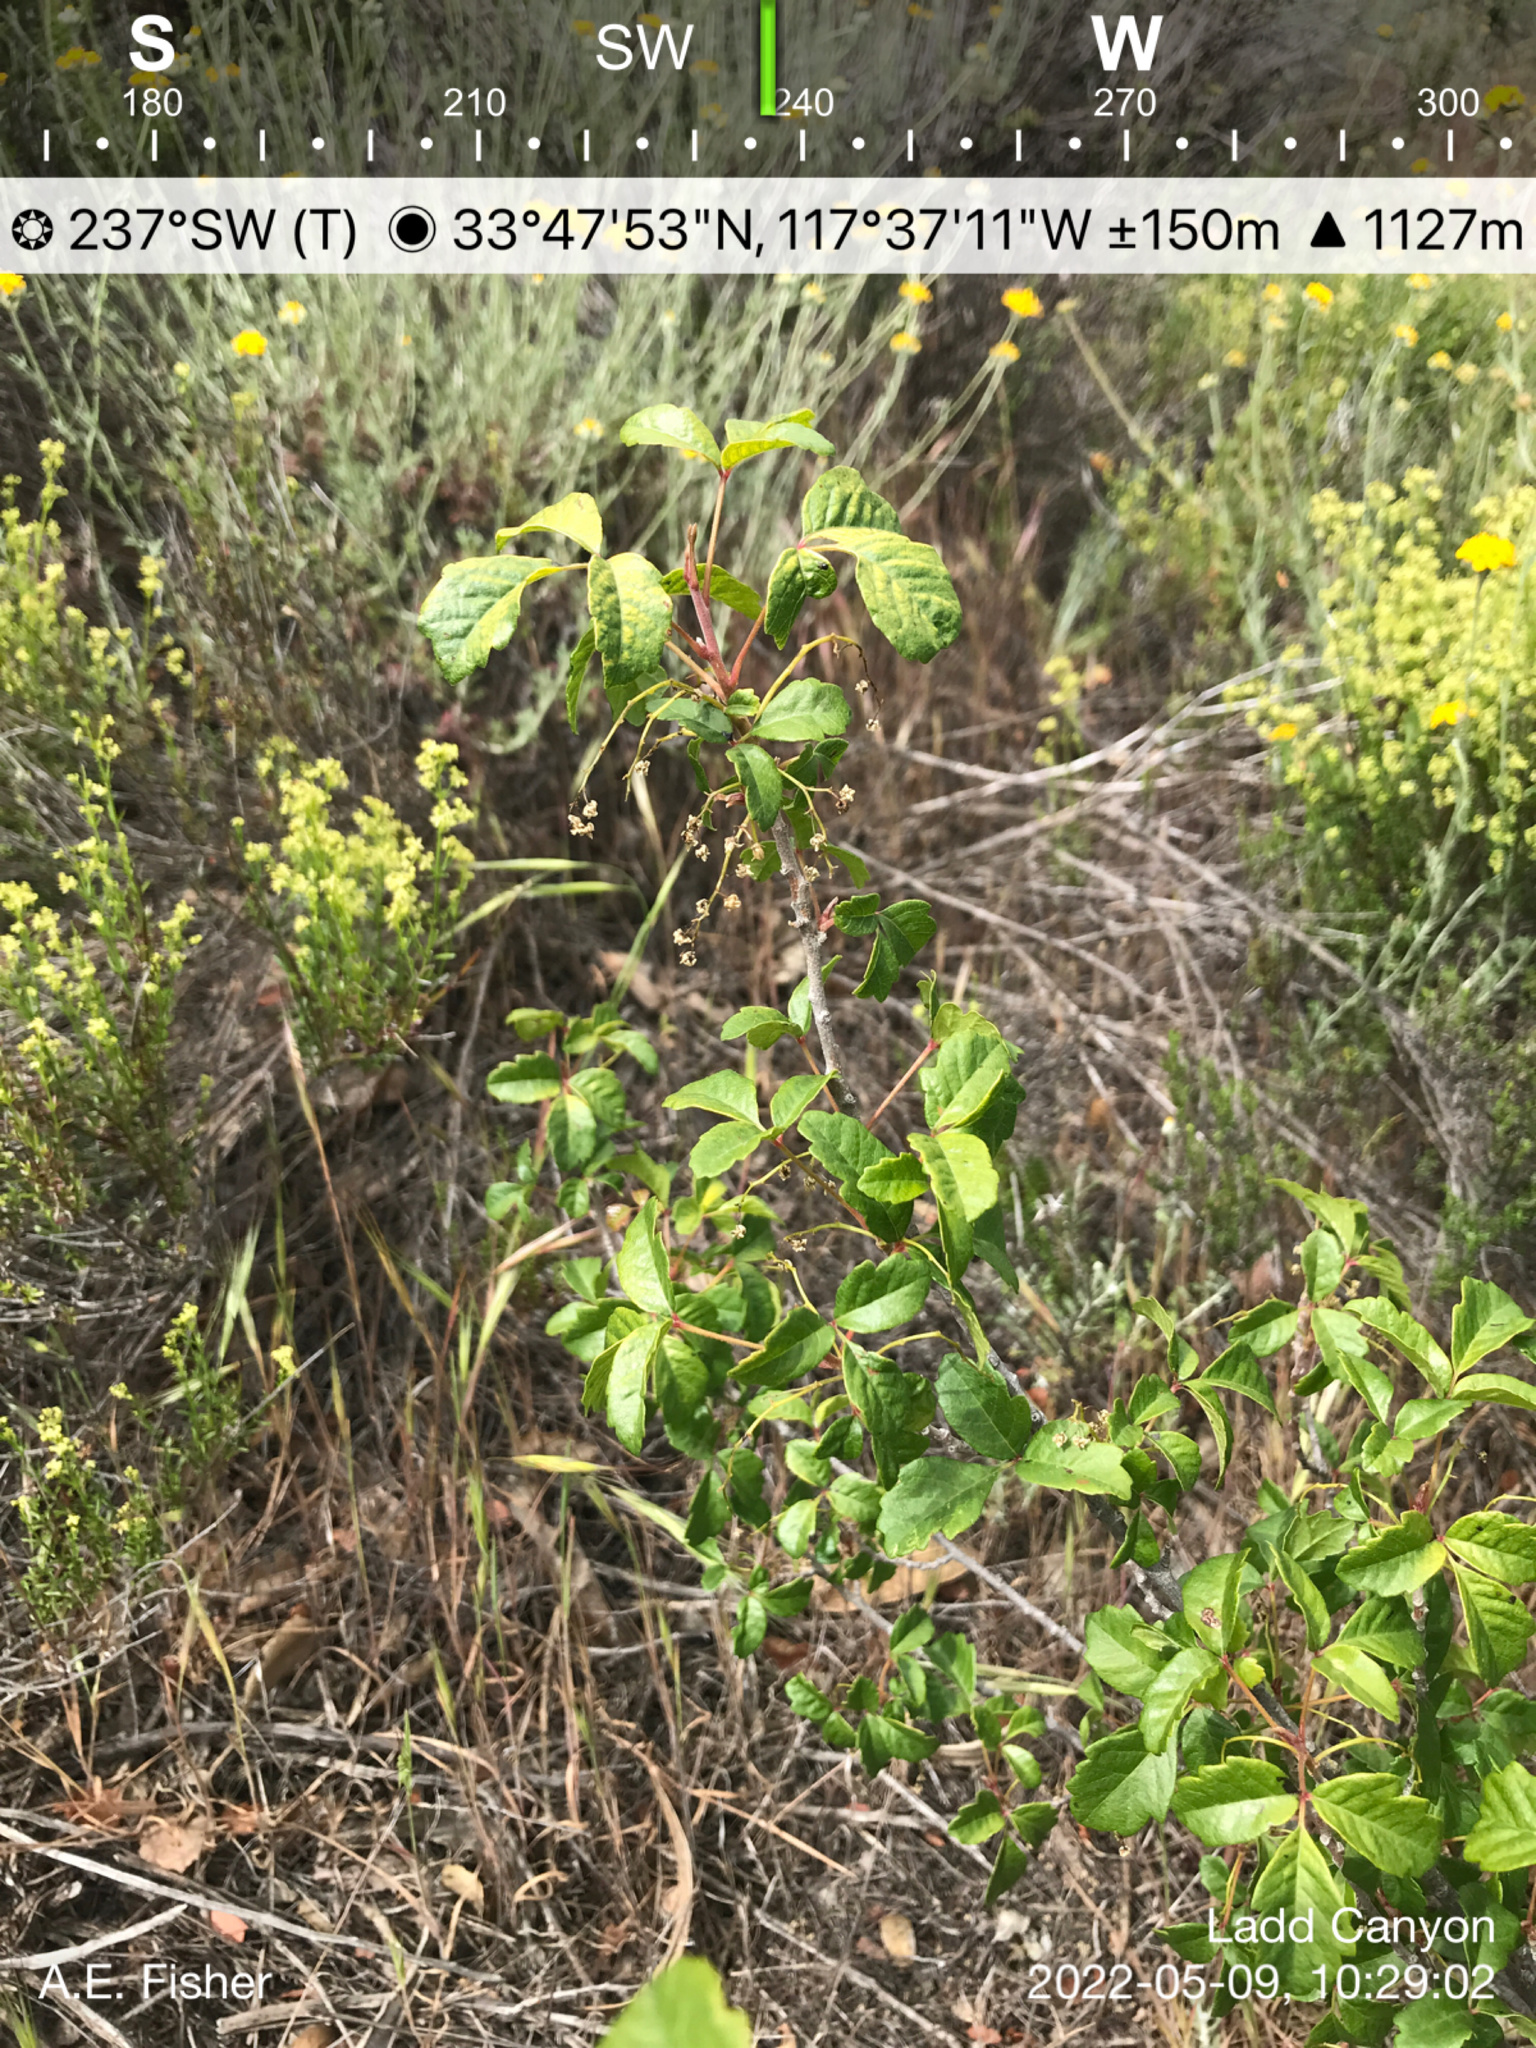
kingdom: Plantae
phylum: Tracheophyta
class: Magnoliopsida
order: Sapindales
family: Anacardiaceae
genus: Toxicodendron
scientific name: Toxicodendron diversilobum
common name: Pacific poison-oak
